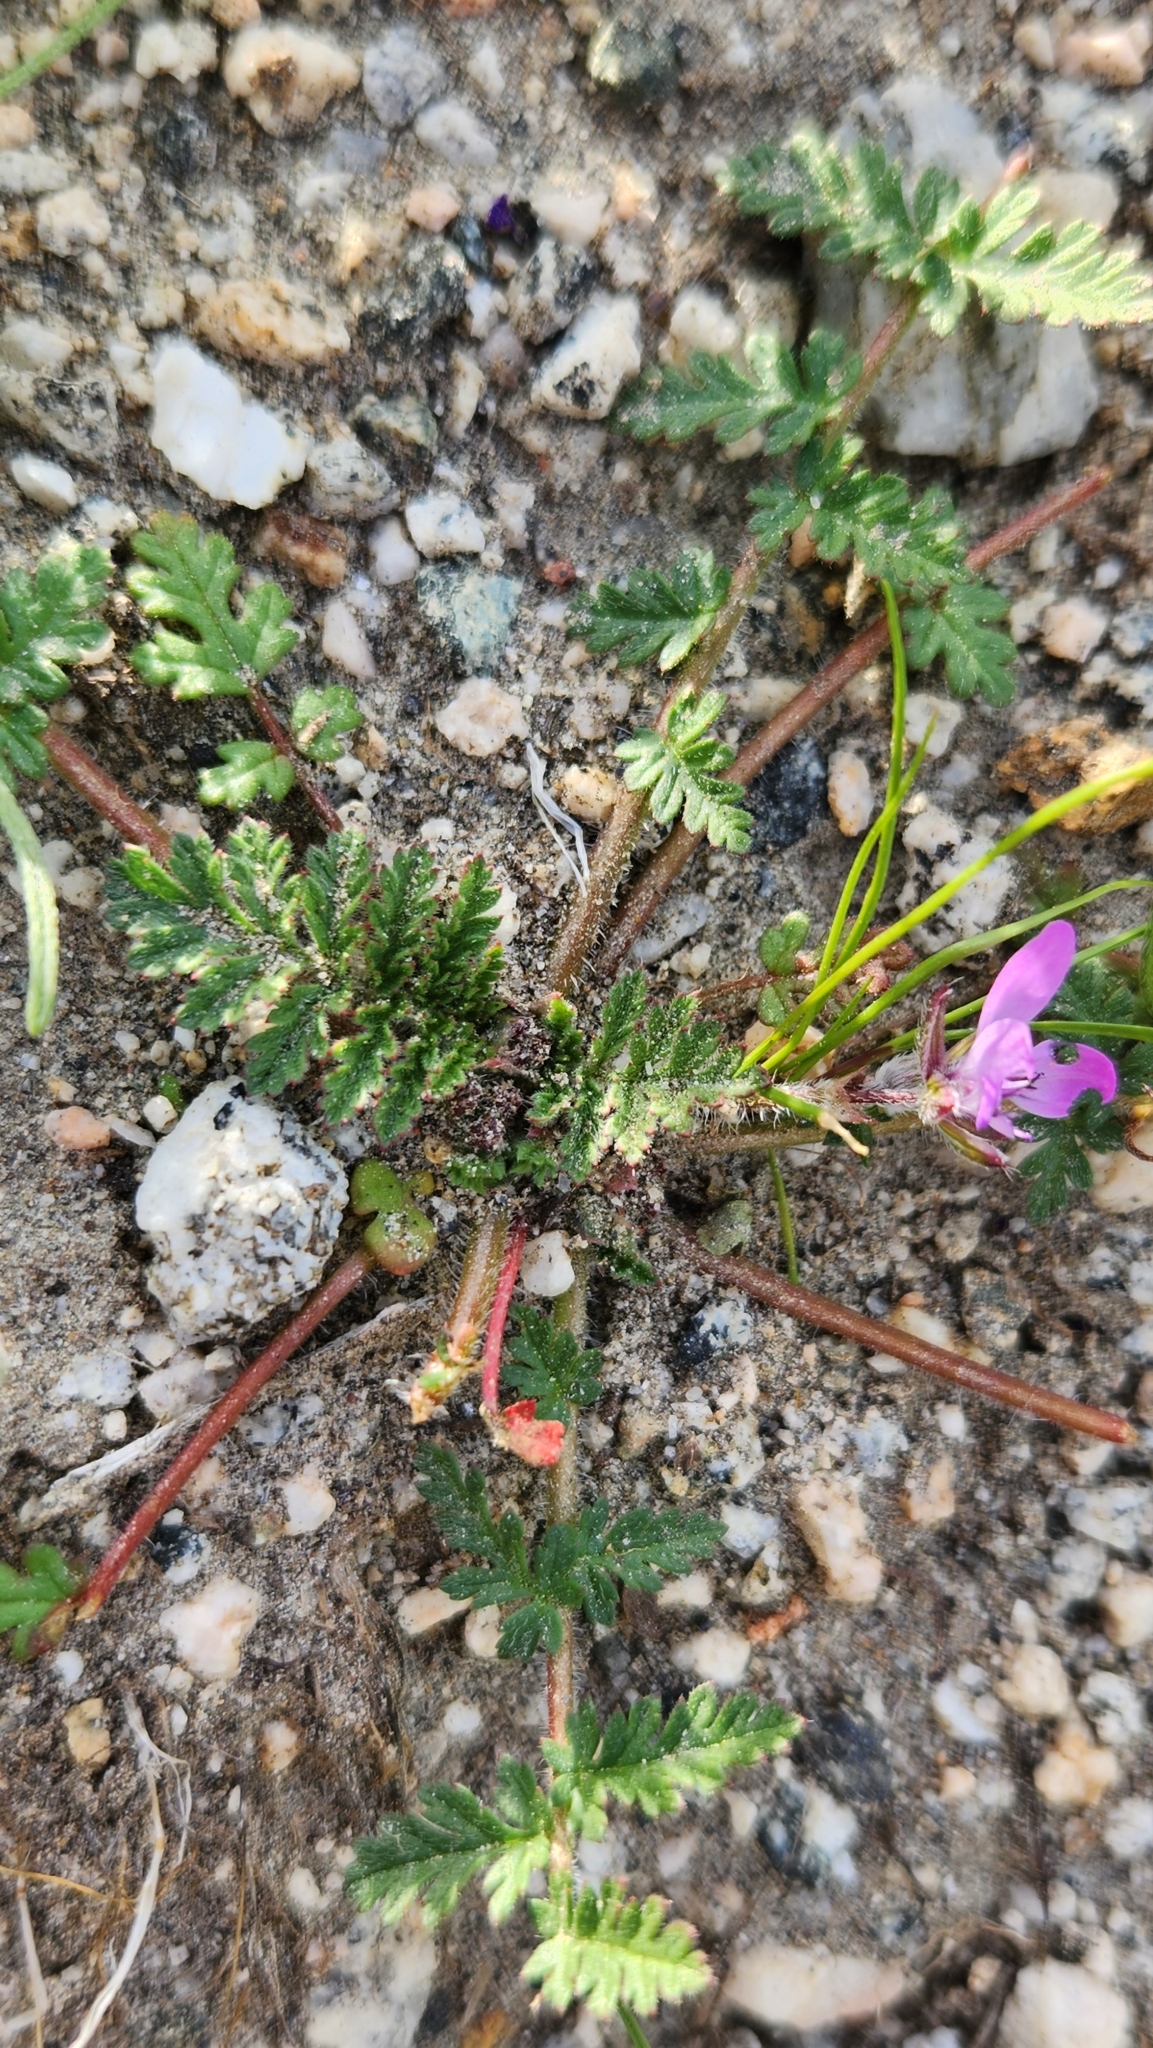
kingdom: Plantae
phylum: Tracheophyta
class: Magnoliopsida
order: Geraniales
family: Geraniaceae
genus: Erodium
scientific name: Erodium cicutarium
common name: Common stork's-bill
